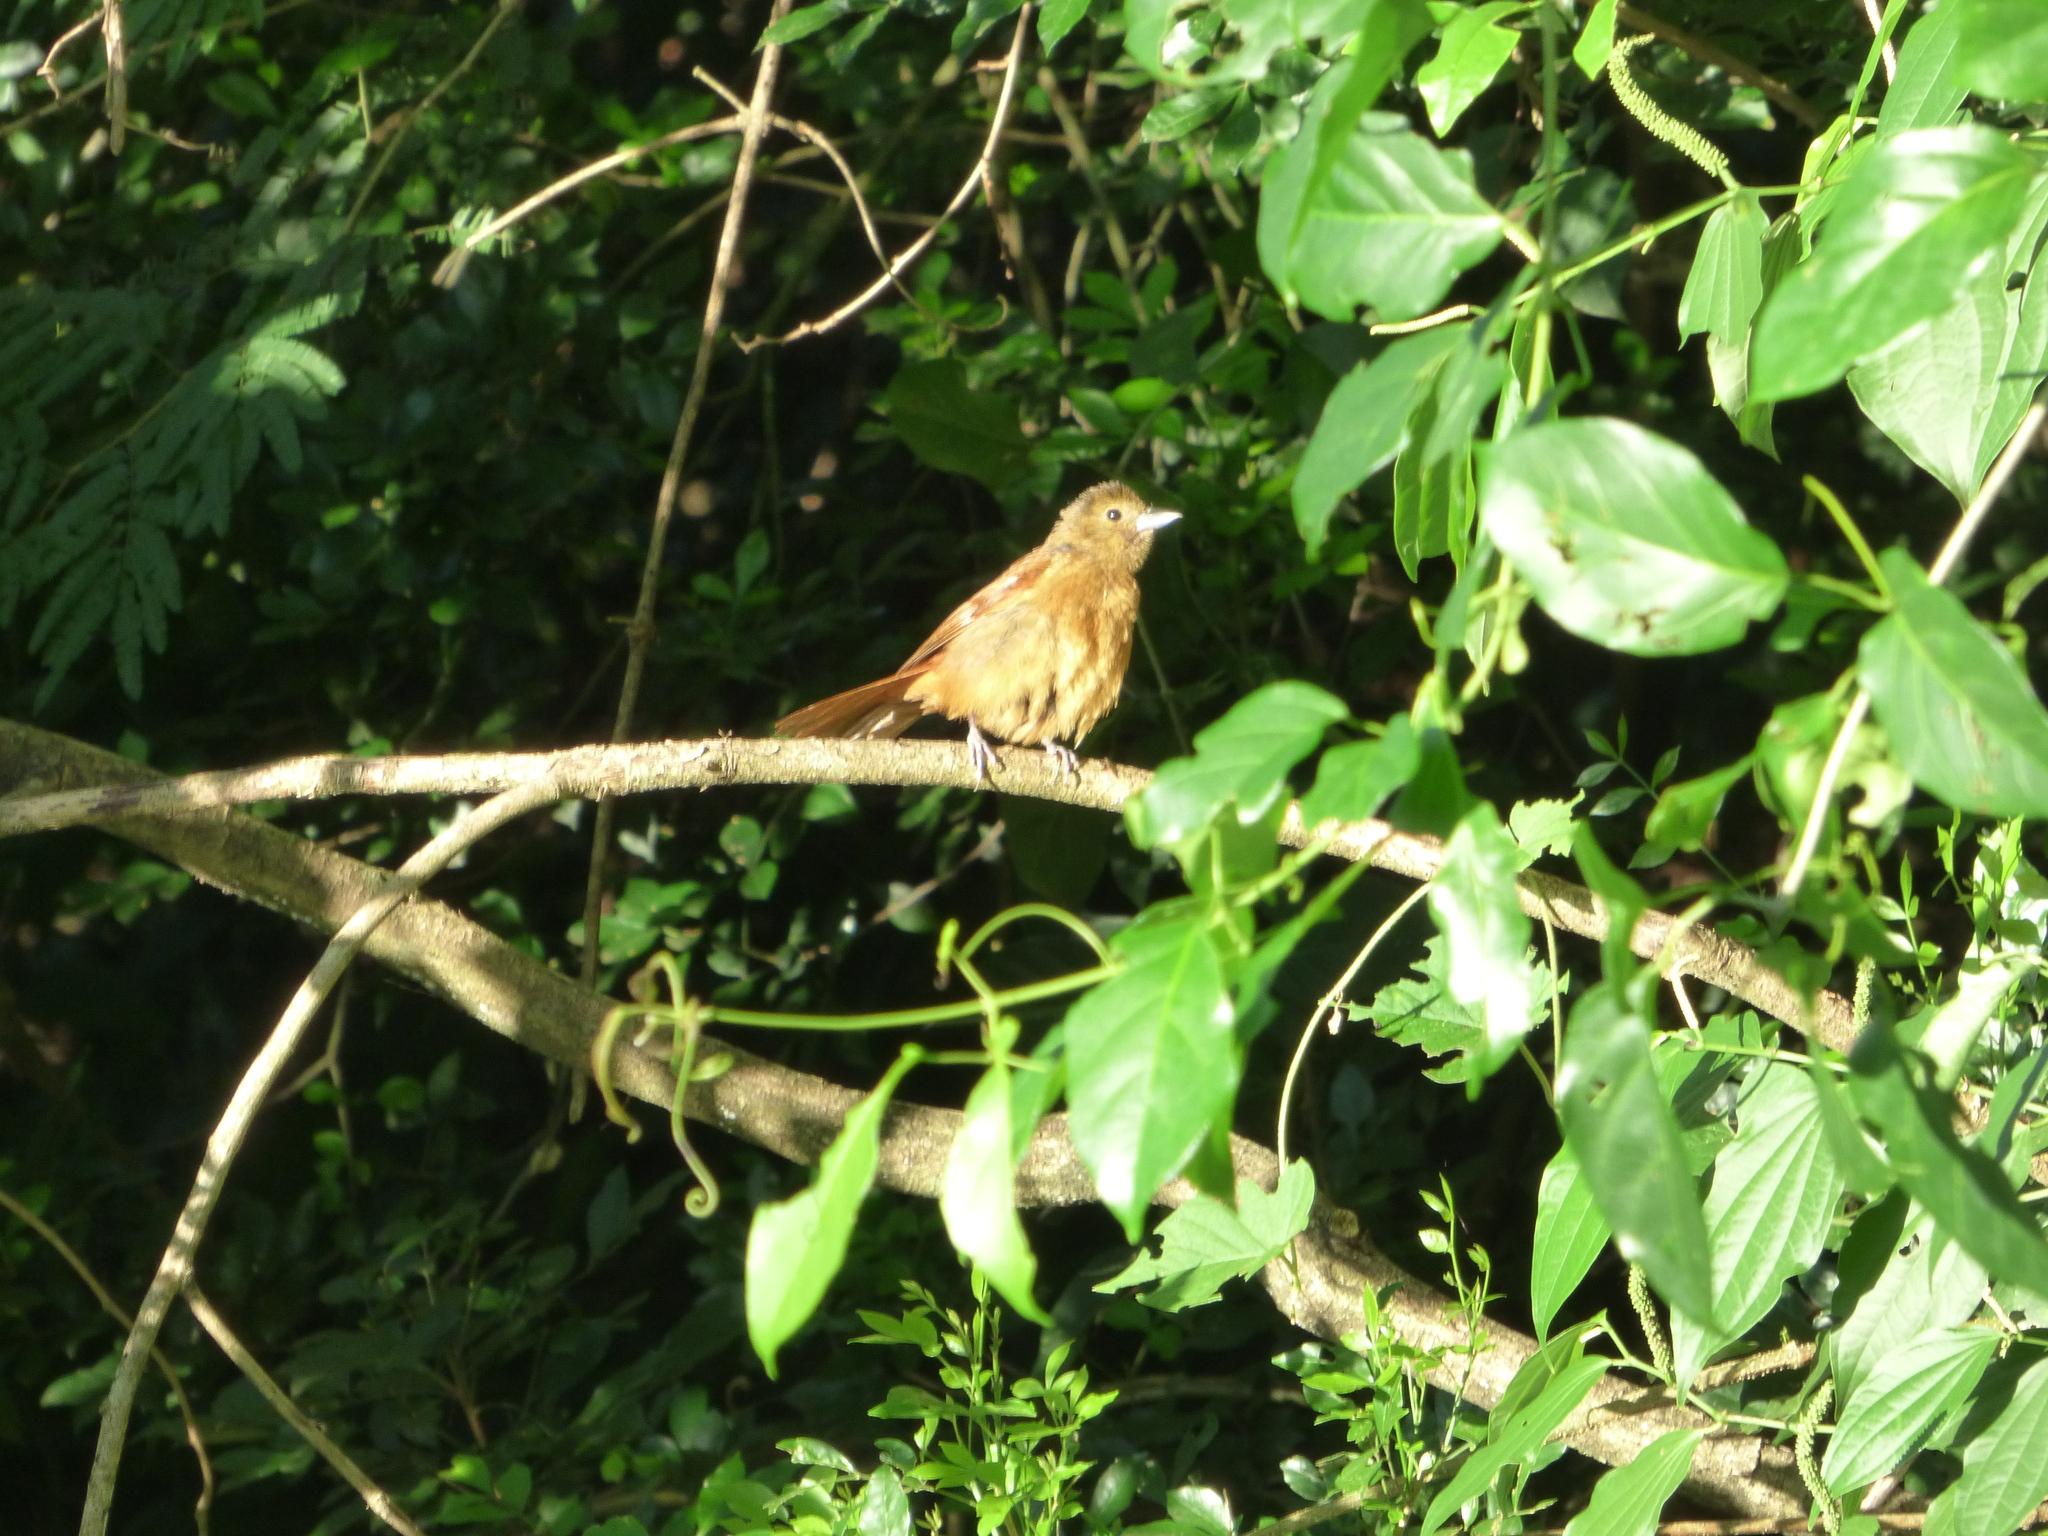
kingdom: Animalia
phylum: Chordata
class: Aves
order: Passeriformes
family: Thraupidae
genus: Tachyphonus
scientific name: Tachyphonus coronatus
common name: Ruby-crowned tanager
